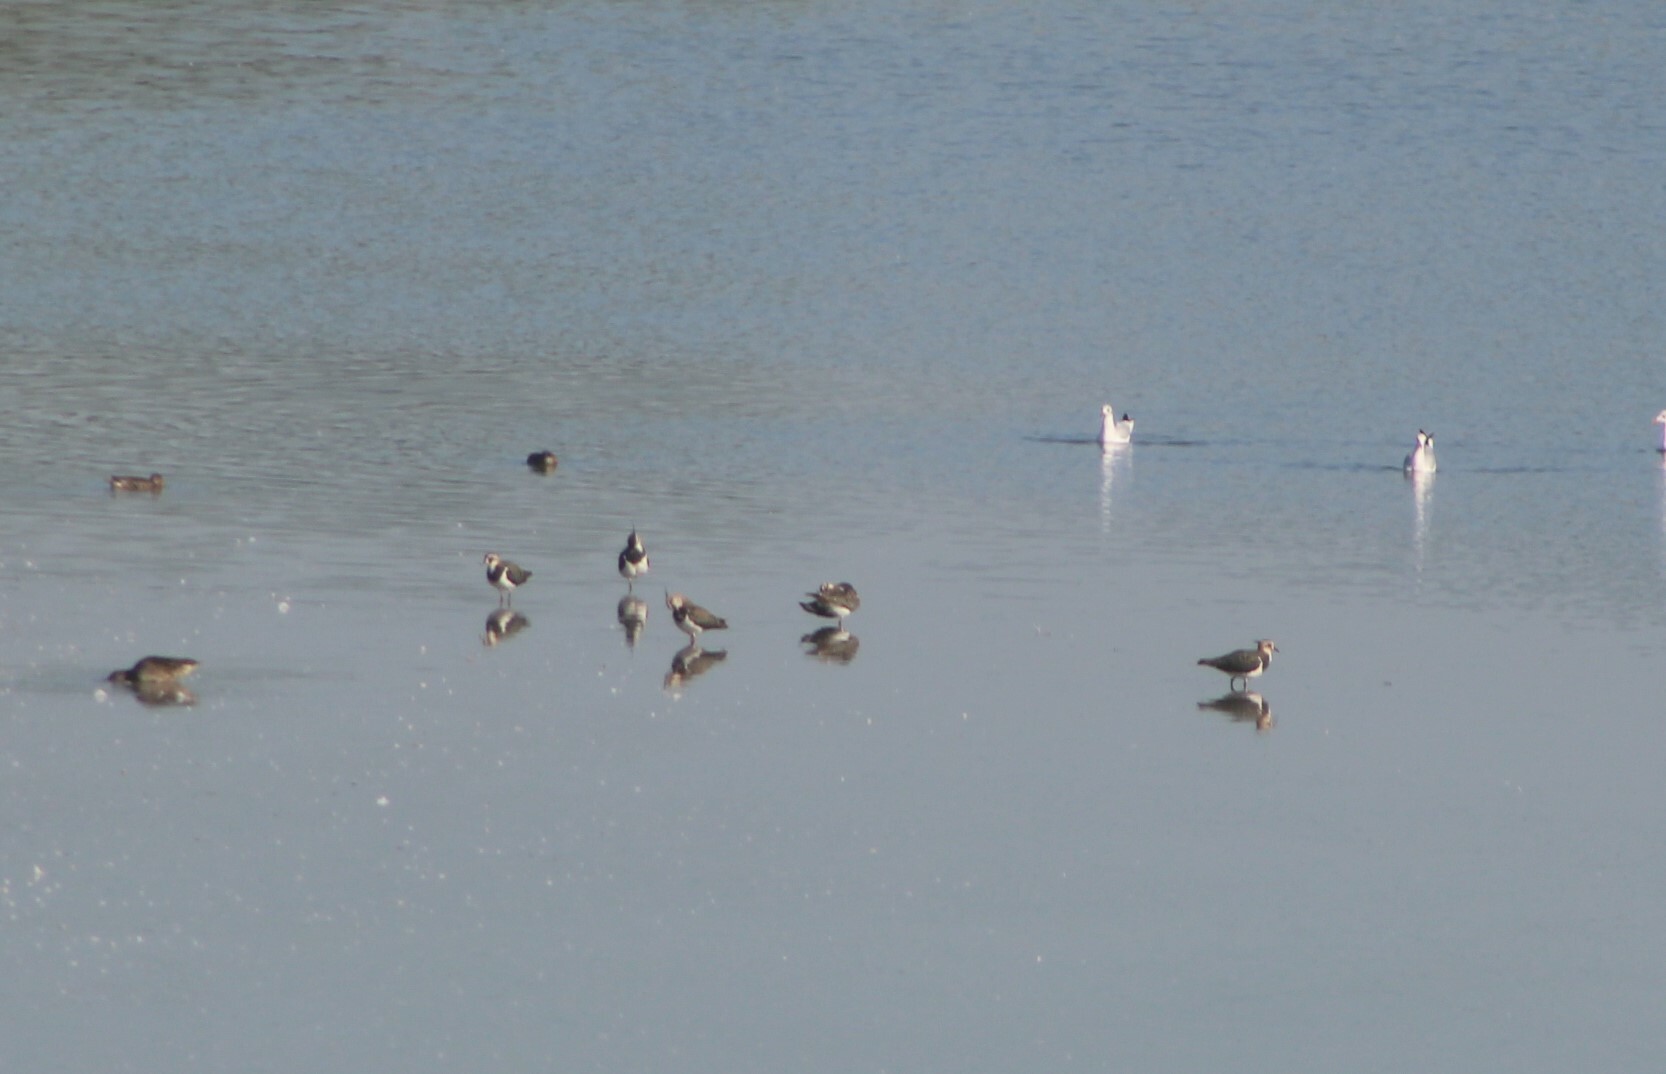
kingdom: Animalia
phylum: Chordata
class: Aves
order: Charadriiformes
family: Charadriidae
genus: Vanellus
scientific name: Vanellus vanellus
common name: Northern lapwing
